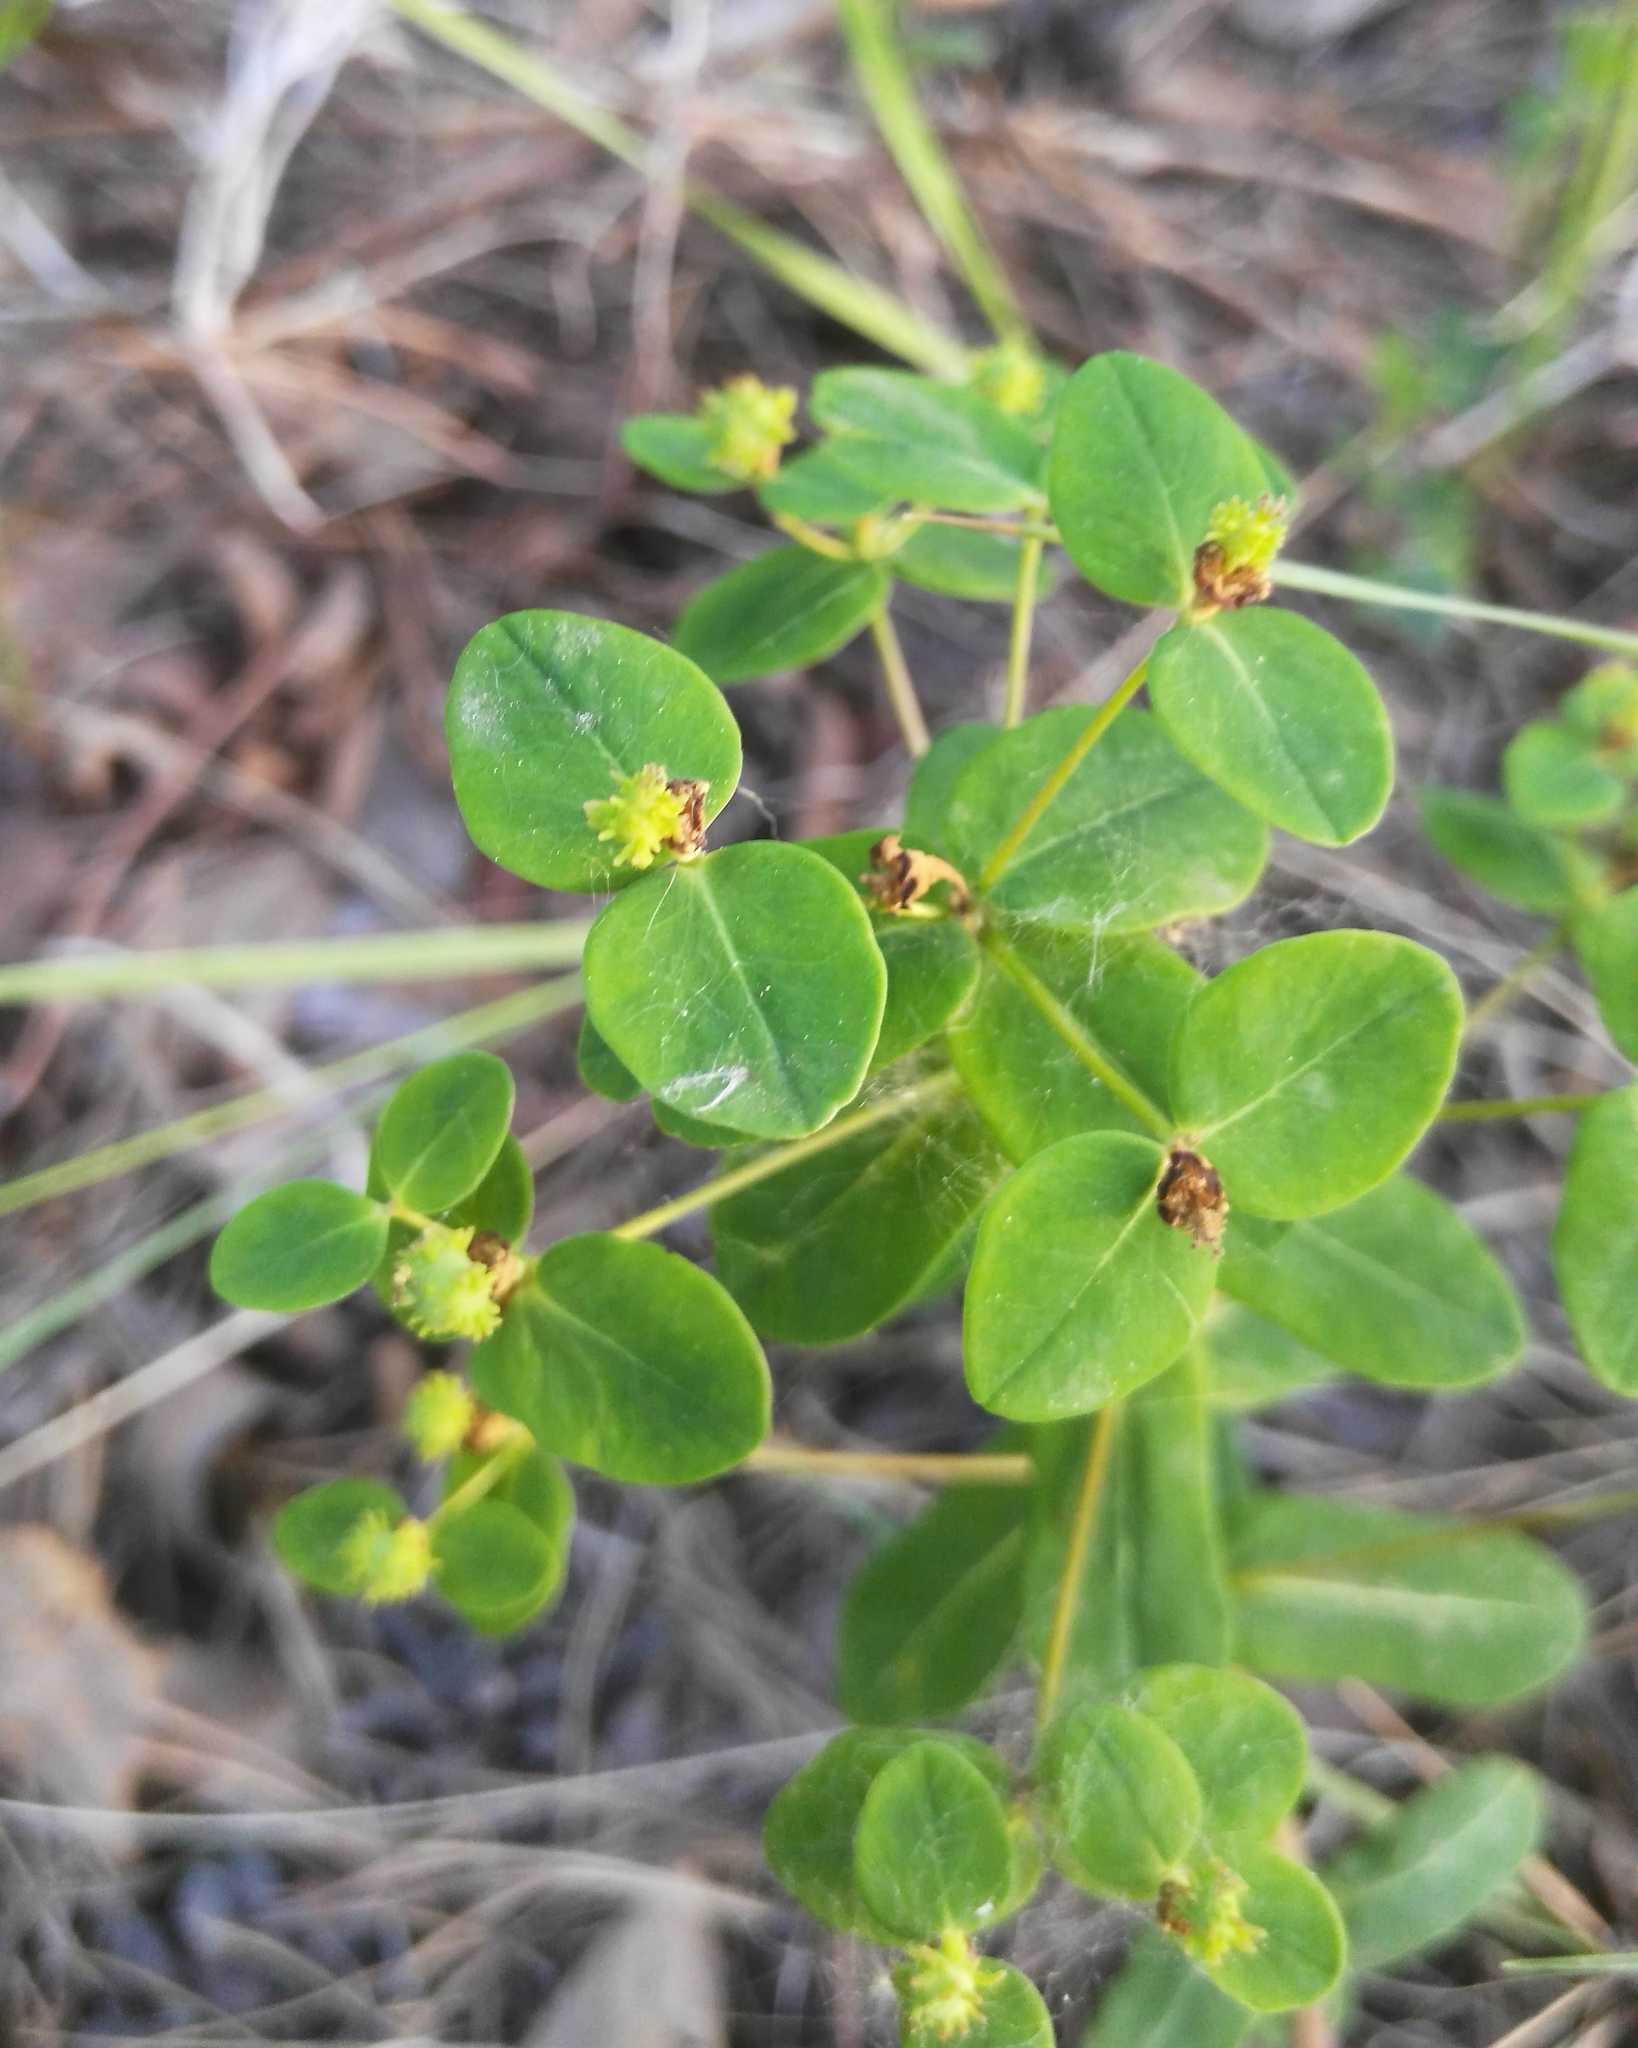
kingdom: Plantae
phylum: Tracheophyta
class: Magnoliopsida
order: Malpighiales
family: Euphorbiaceae
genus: Euphorbia
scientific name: Euphorbia jenisseiensis
